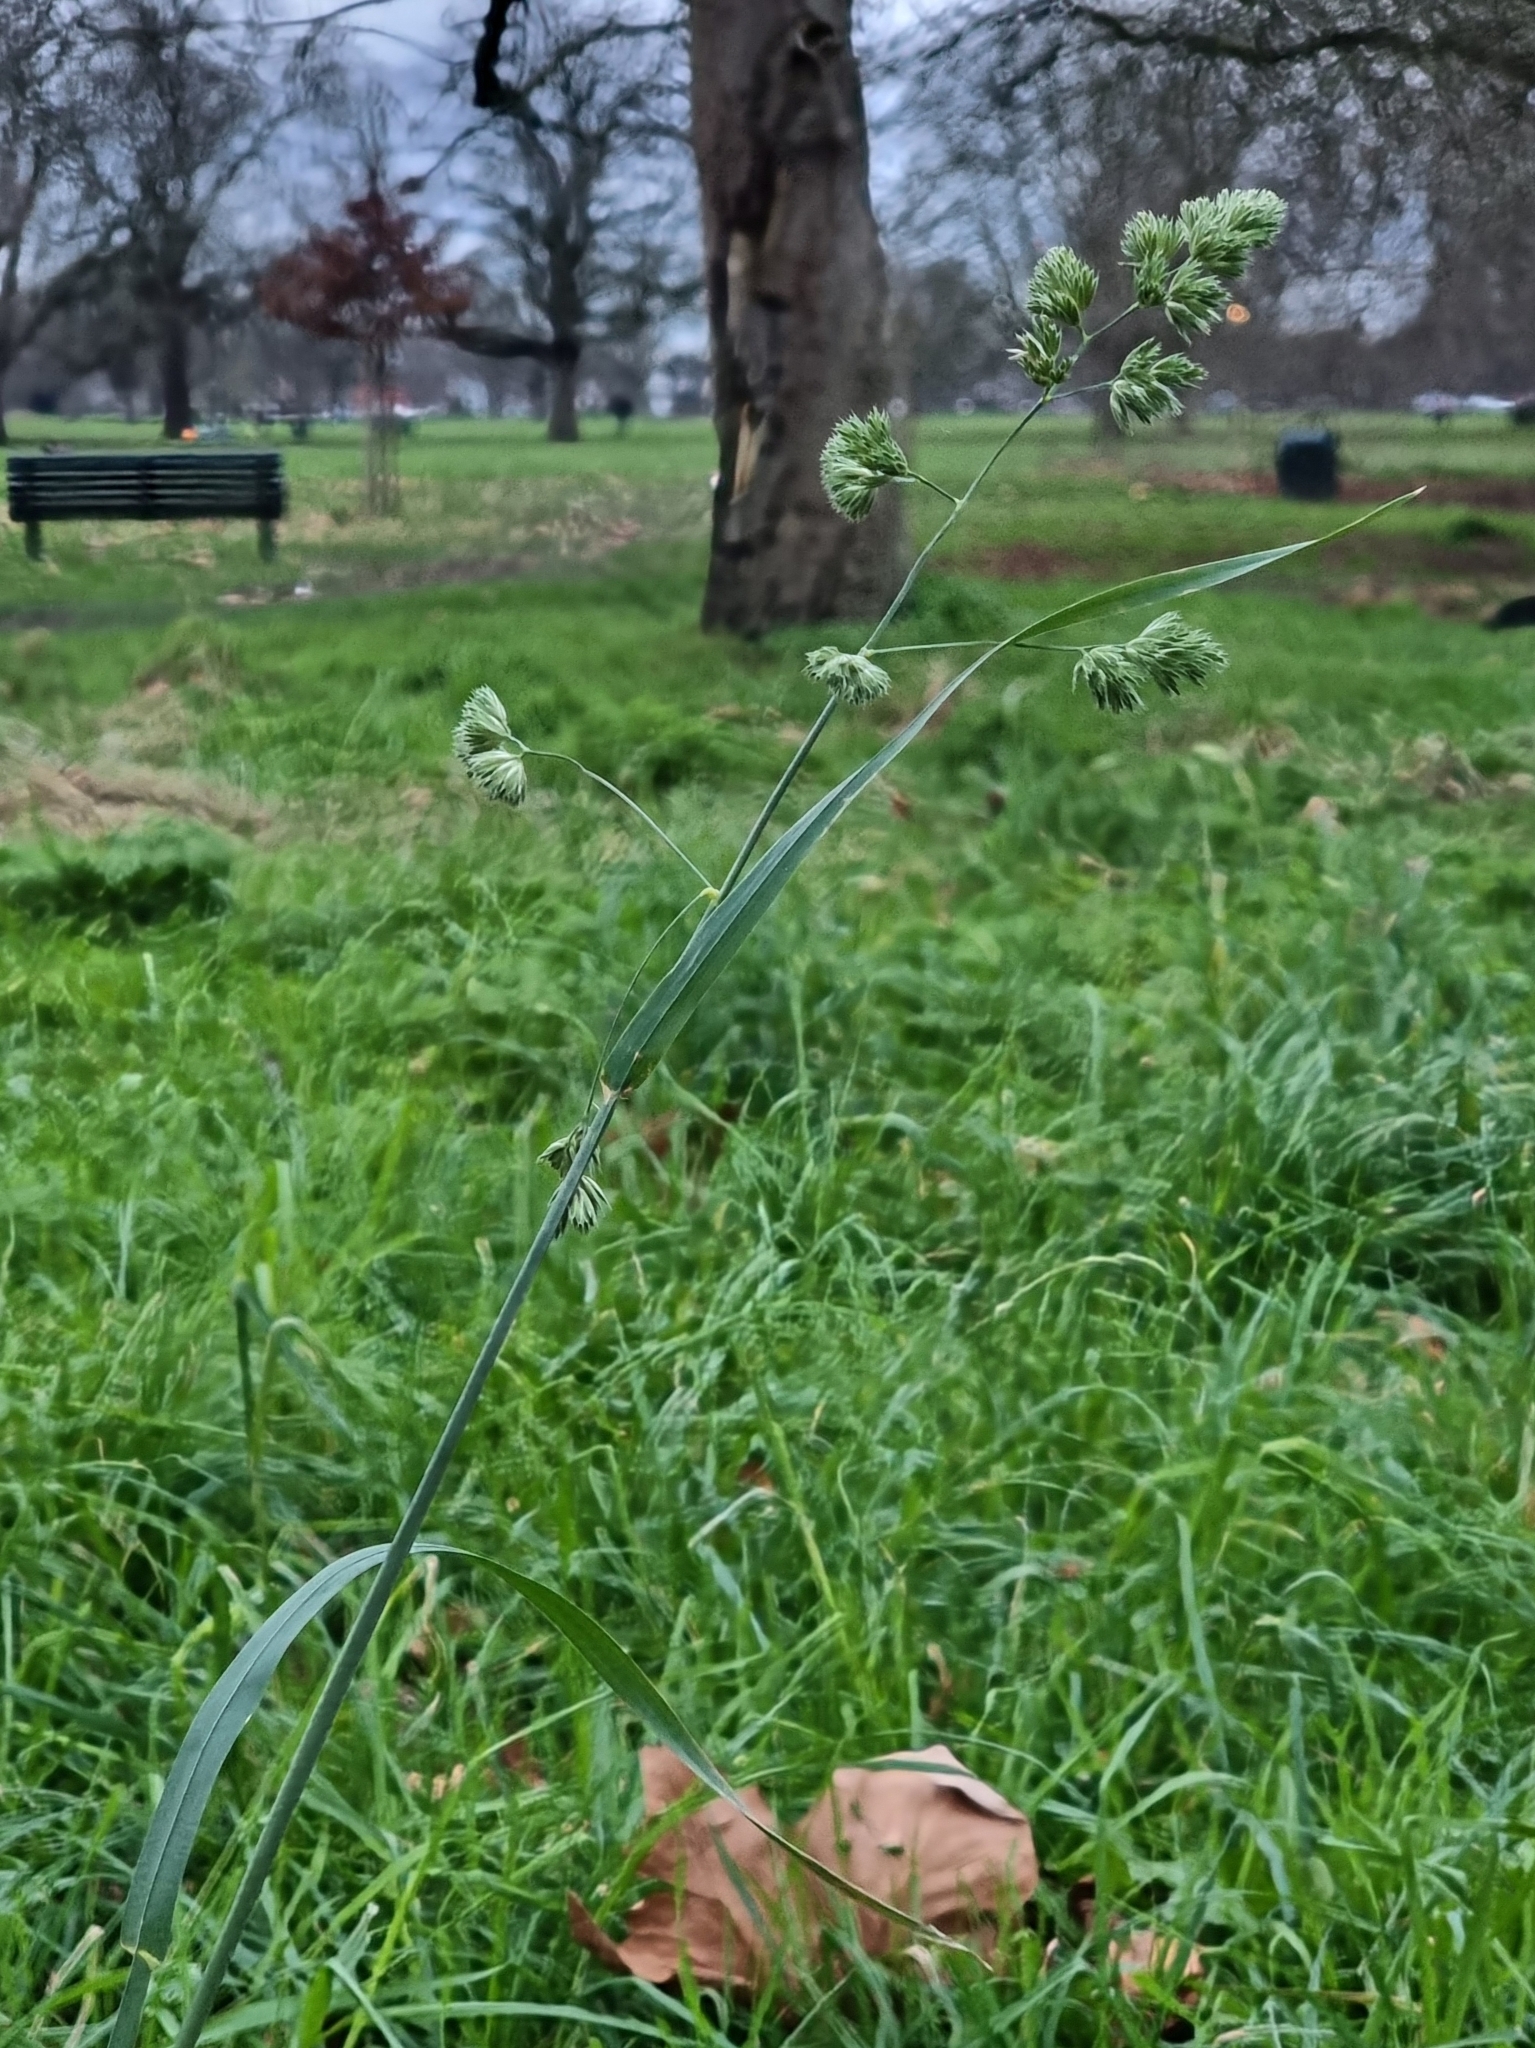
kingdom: Plantae
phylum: Tracheophyta
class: Liliopsida
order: Poales
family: Poaceae
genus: Dactylis
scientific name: Dactylis glomerata
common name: Orchardgrass
